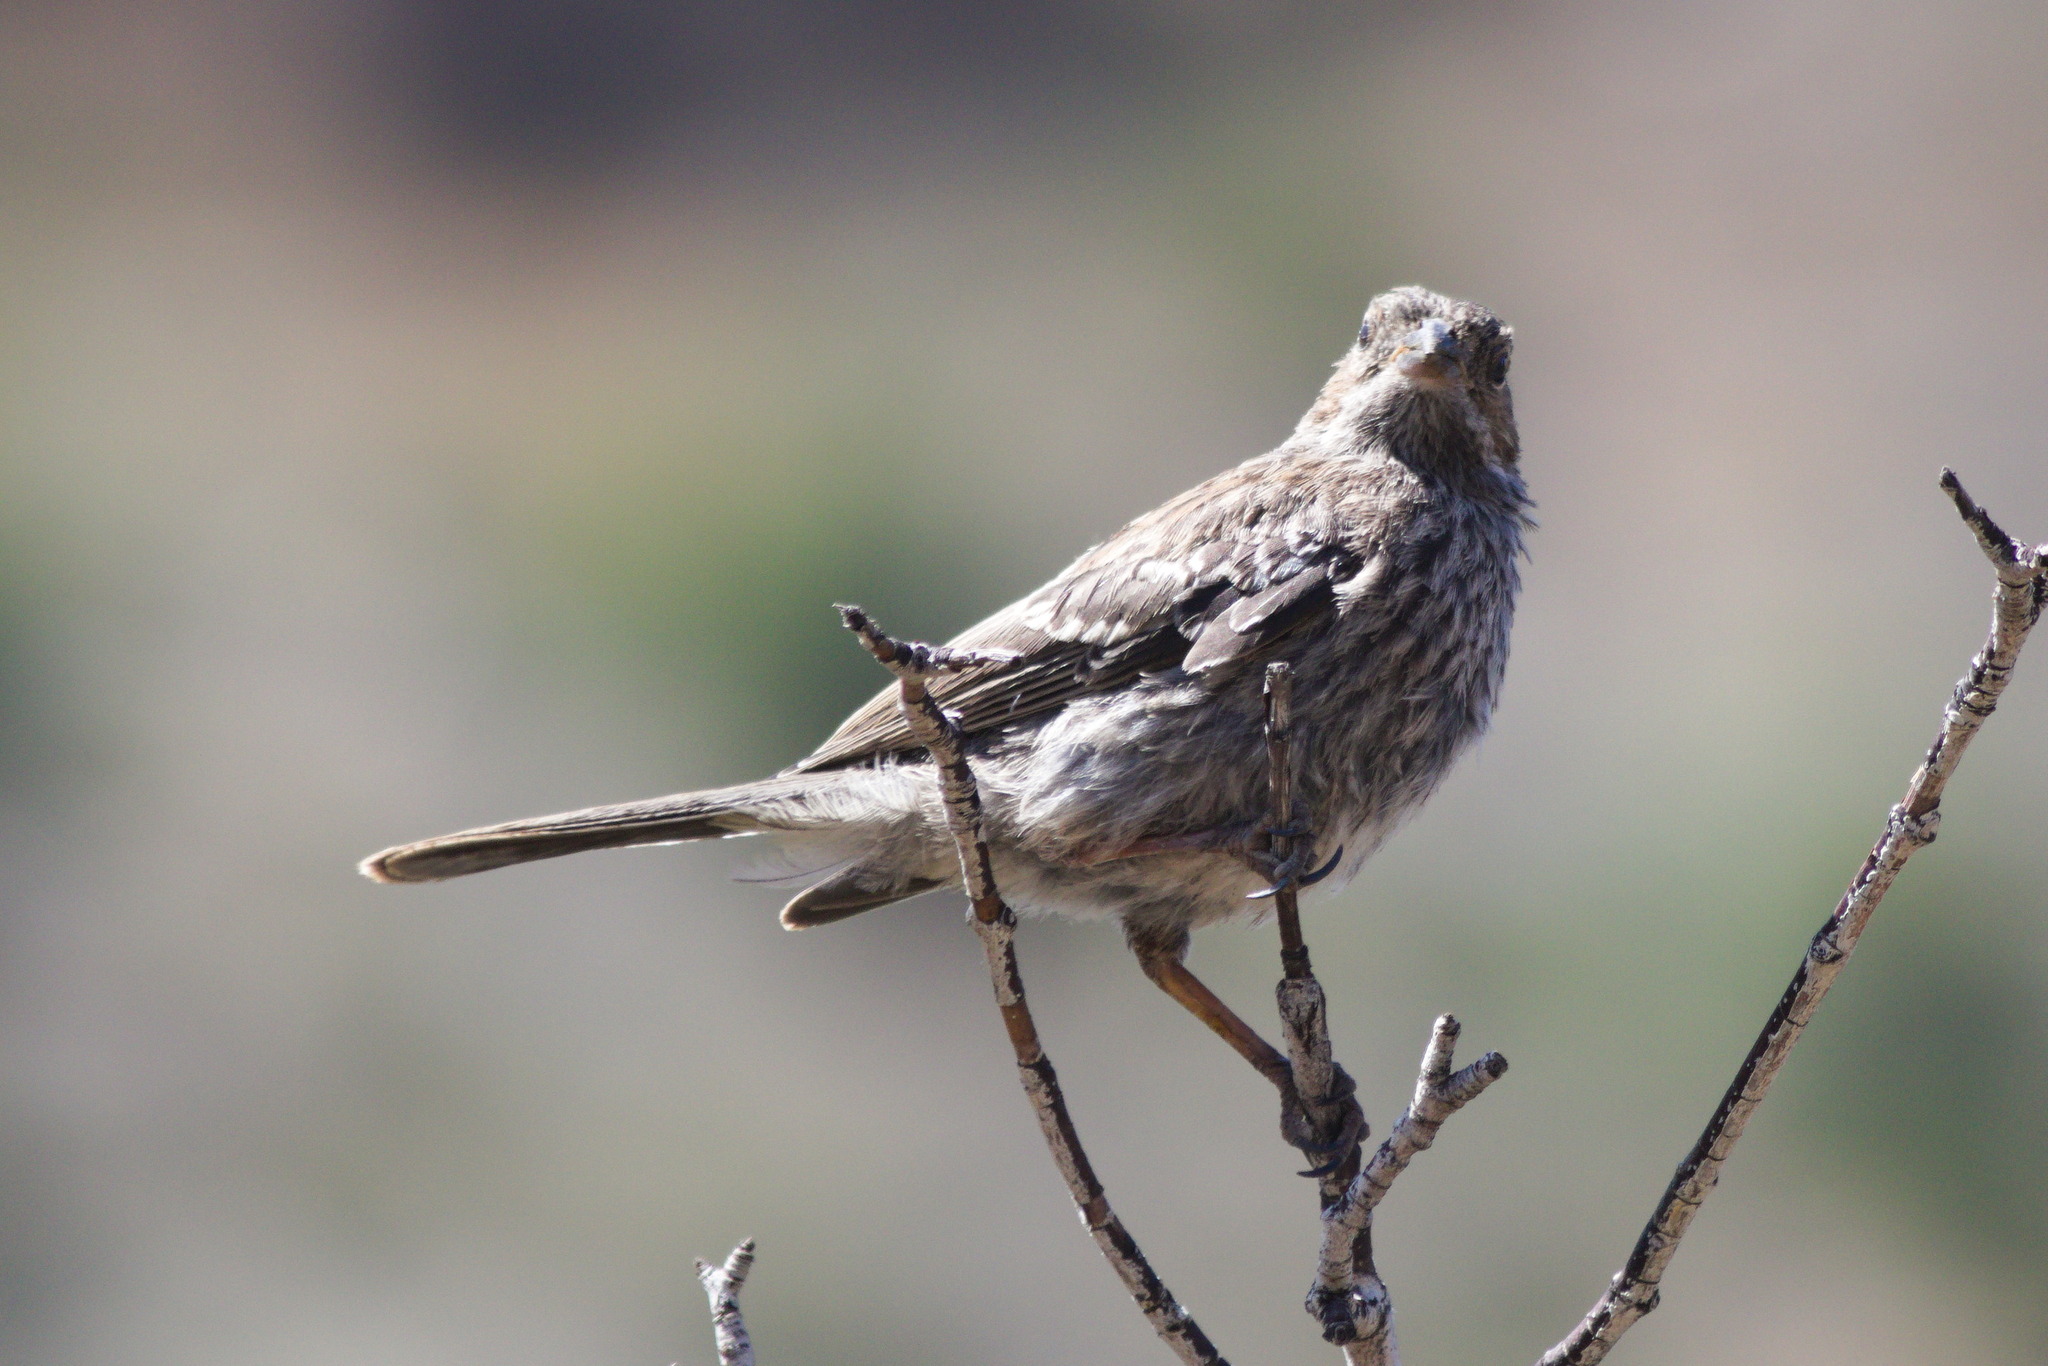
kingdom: Animalia
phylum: Chordata
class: Aves
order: Passeriformes
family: Thraupidae
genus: Rhopospina
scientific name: Rhopospina fruticeti
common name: Mourning sierra finch
